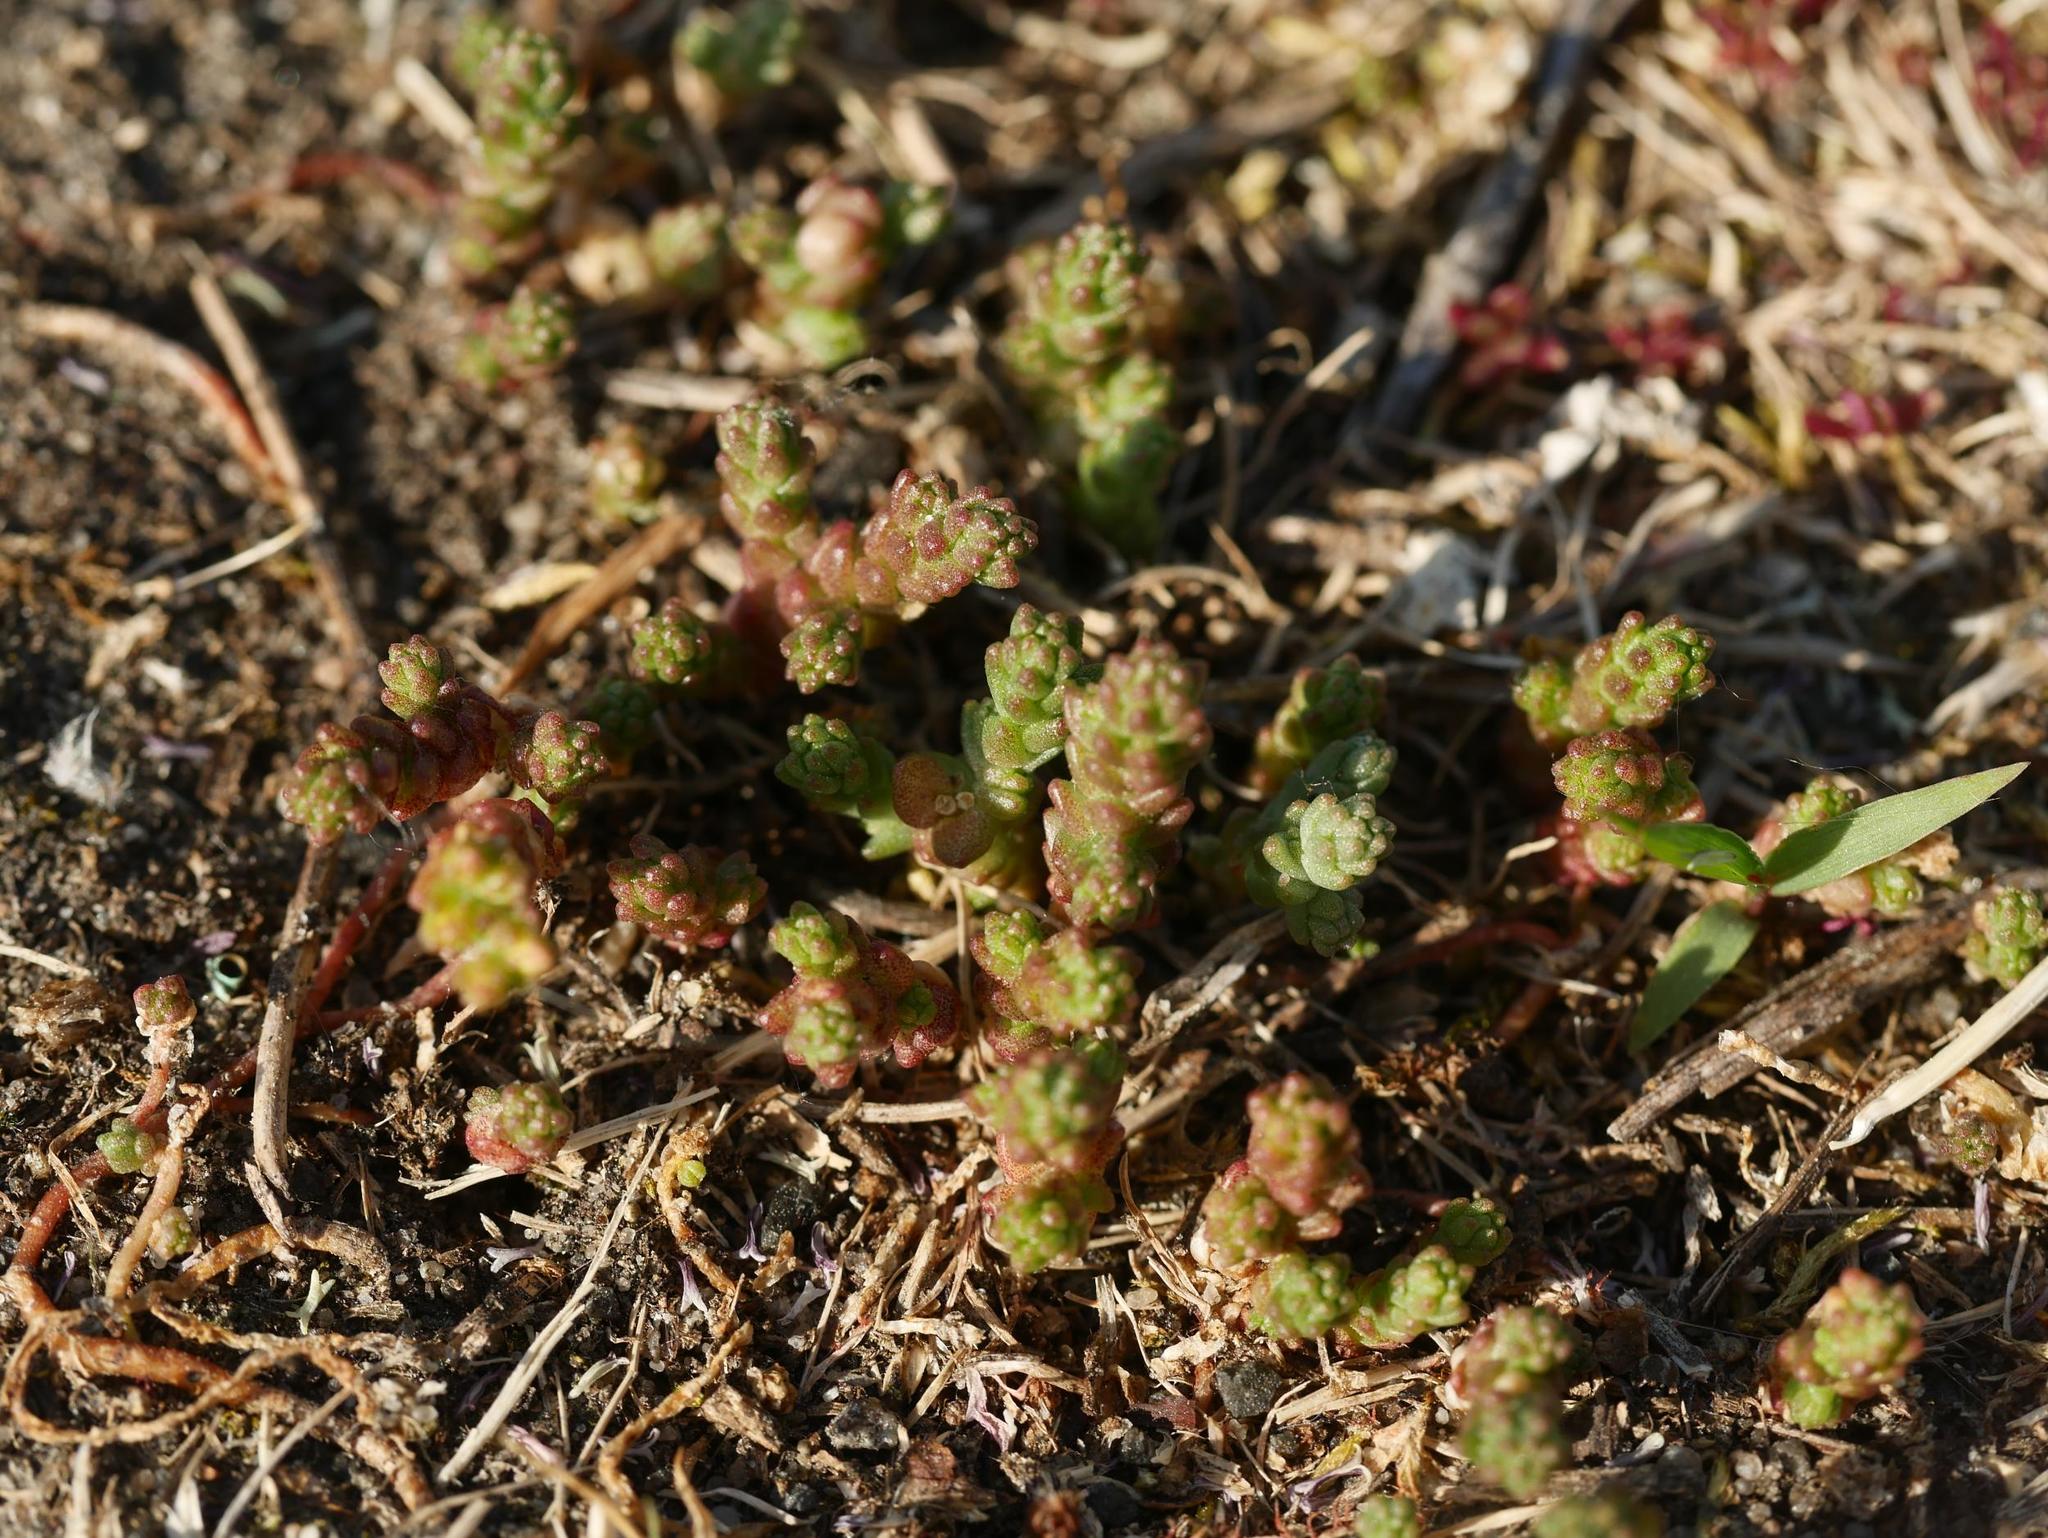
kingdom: Plantae
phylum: Tracheophyta
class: Magnoliopsida
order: Saxifragales
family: Crassulaceae
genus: Sedum
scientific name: Sedum acre
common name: Biting stonecrop
